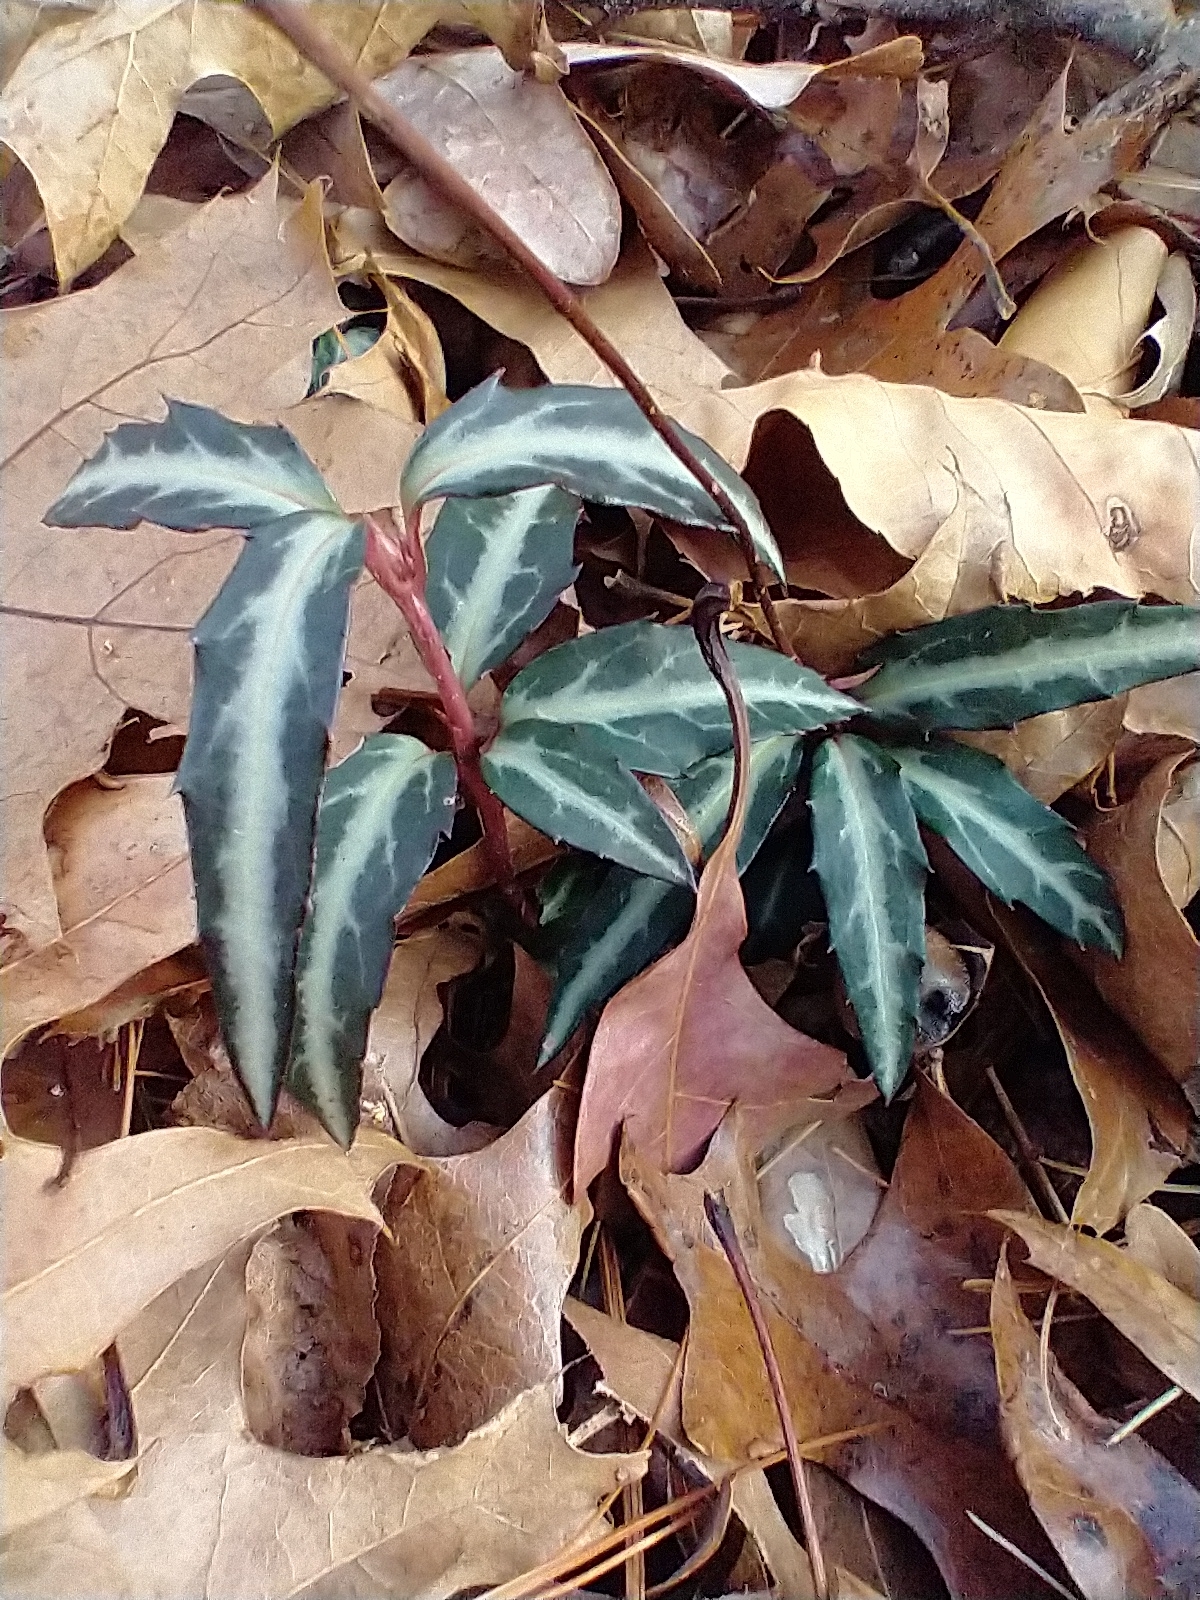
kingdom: Plantae
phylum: Tracheophyta
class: Magnoliopsida
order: Ericales
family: Ericaceae
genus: Chimaphila
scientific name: Chimaphila maculata
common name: Spotted pipsissewa
